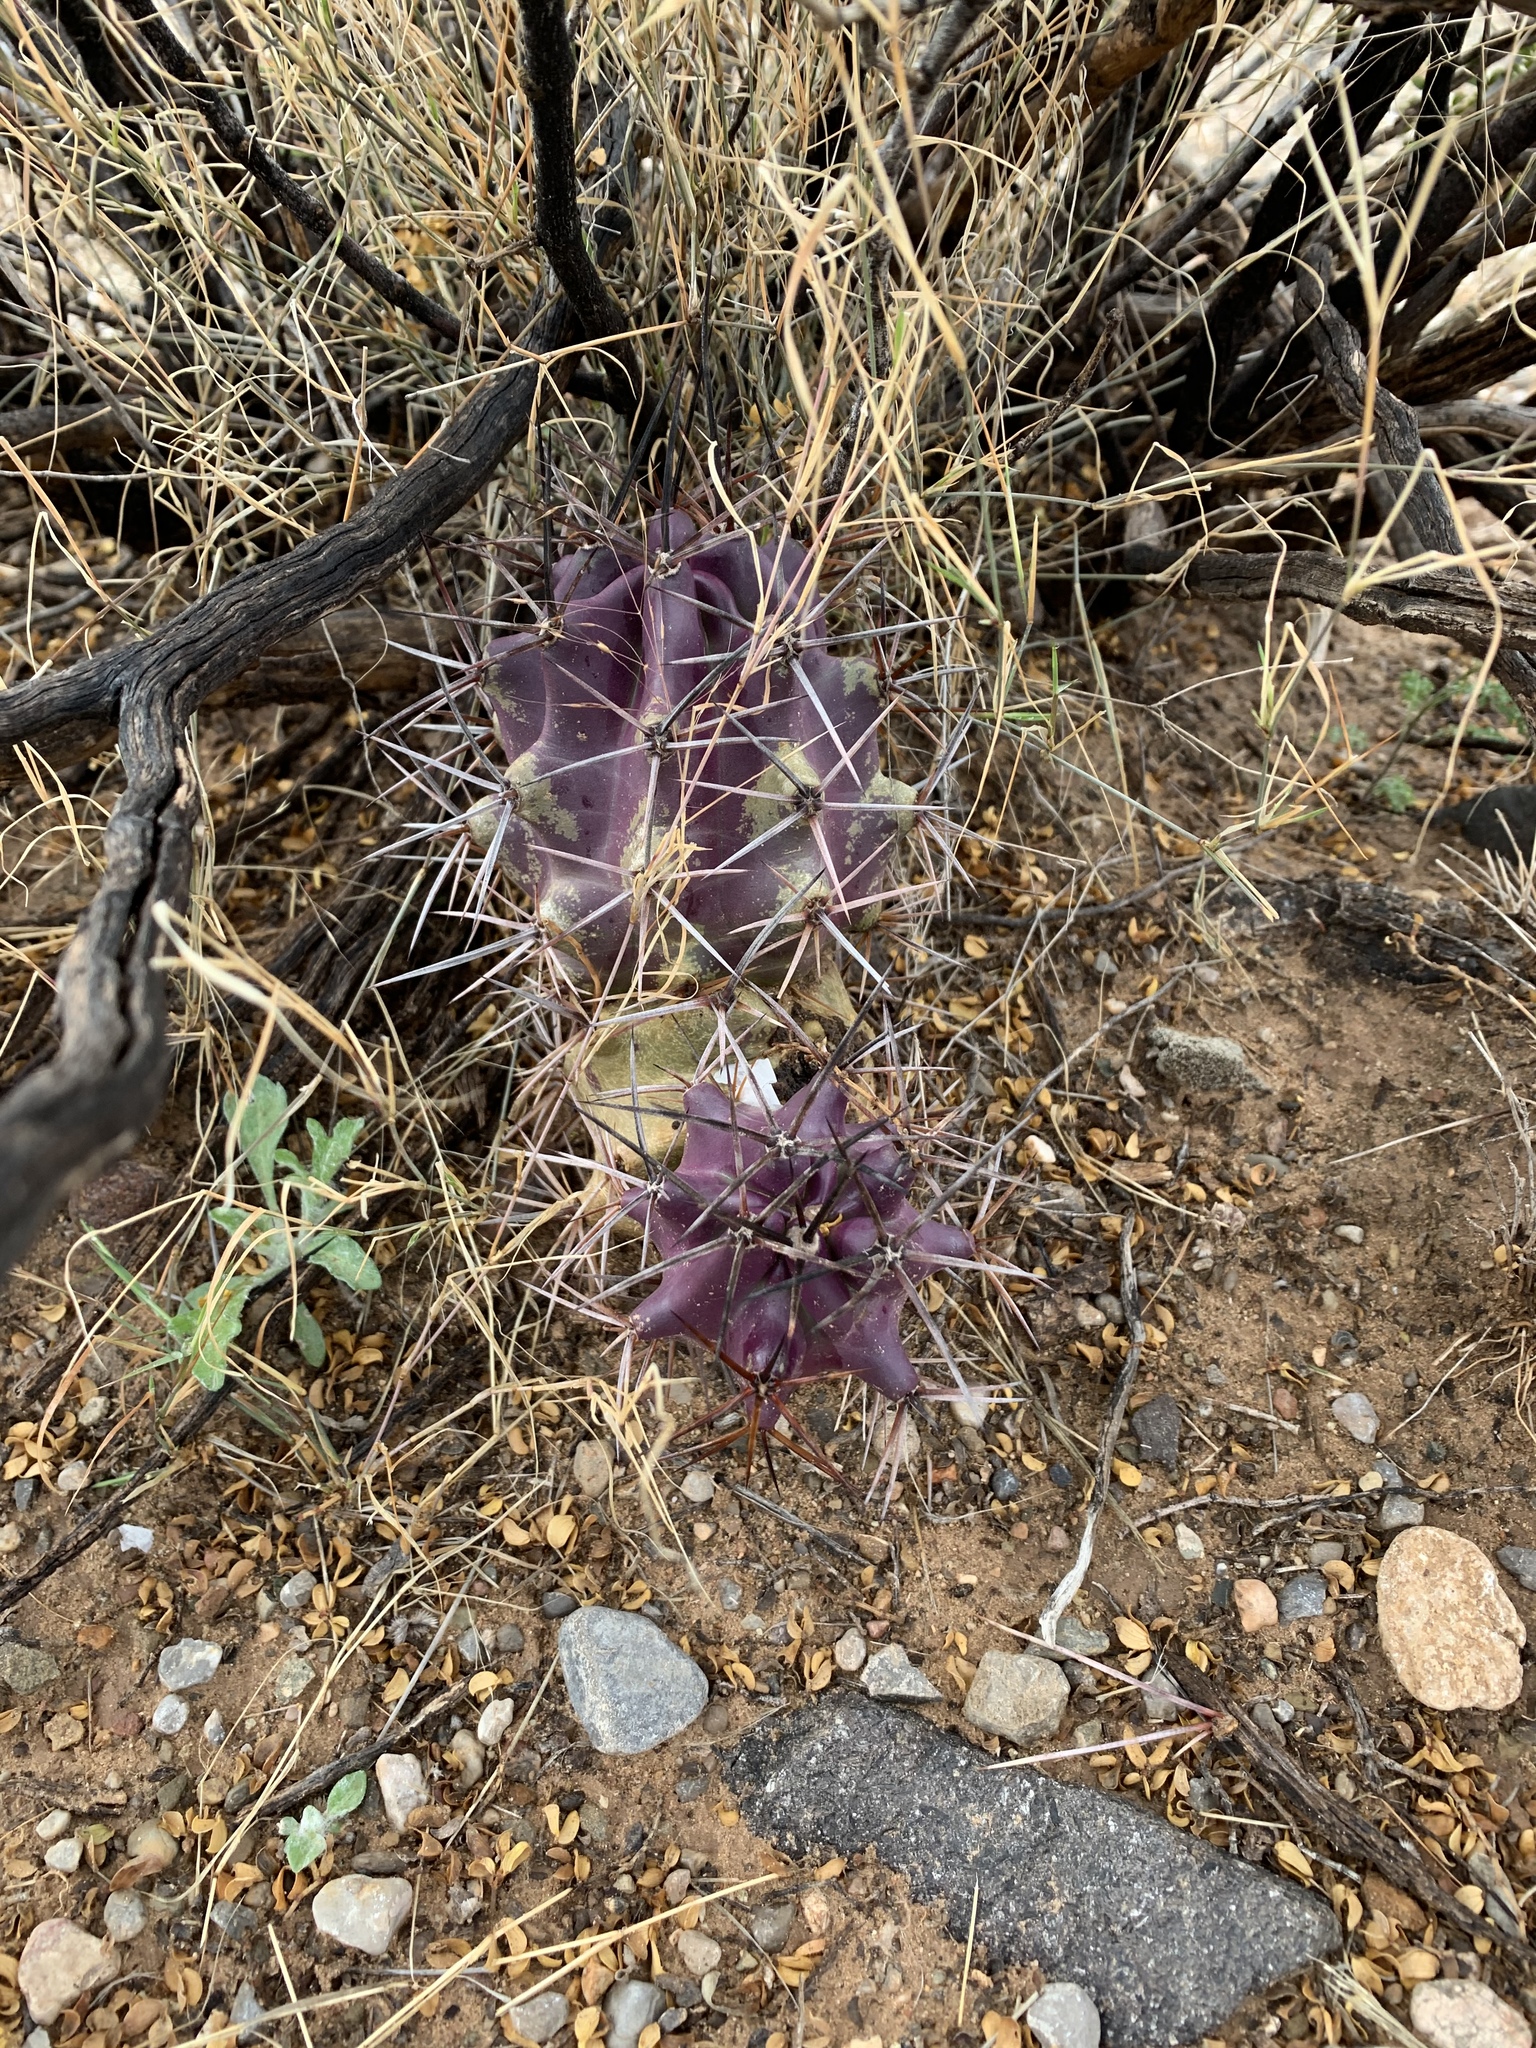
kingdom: Plantae
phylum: Tracheophyta
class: Magnoliopsida
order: Caryophyllales
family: Cactaceae
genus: Echinocereus
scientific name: Echinocereus triglochidiatus
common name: Claretcup hedgehog
